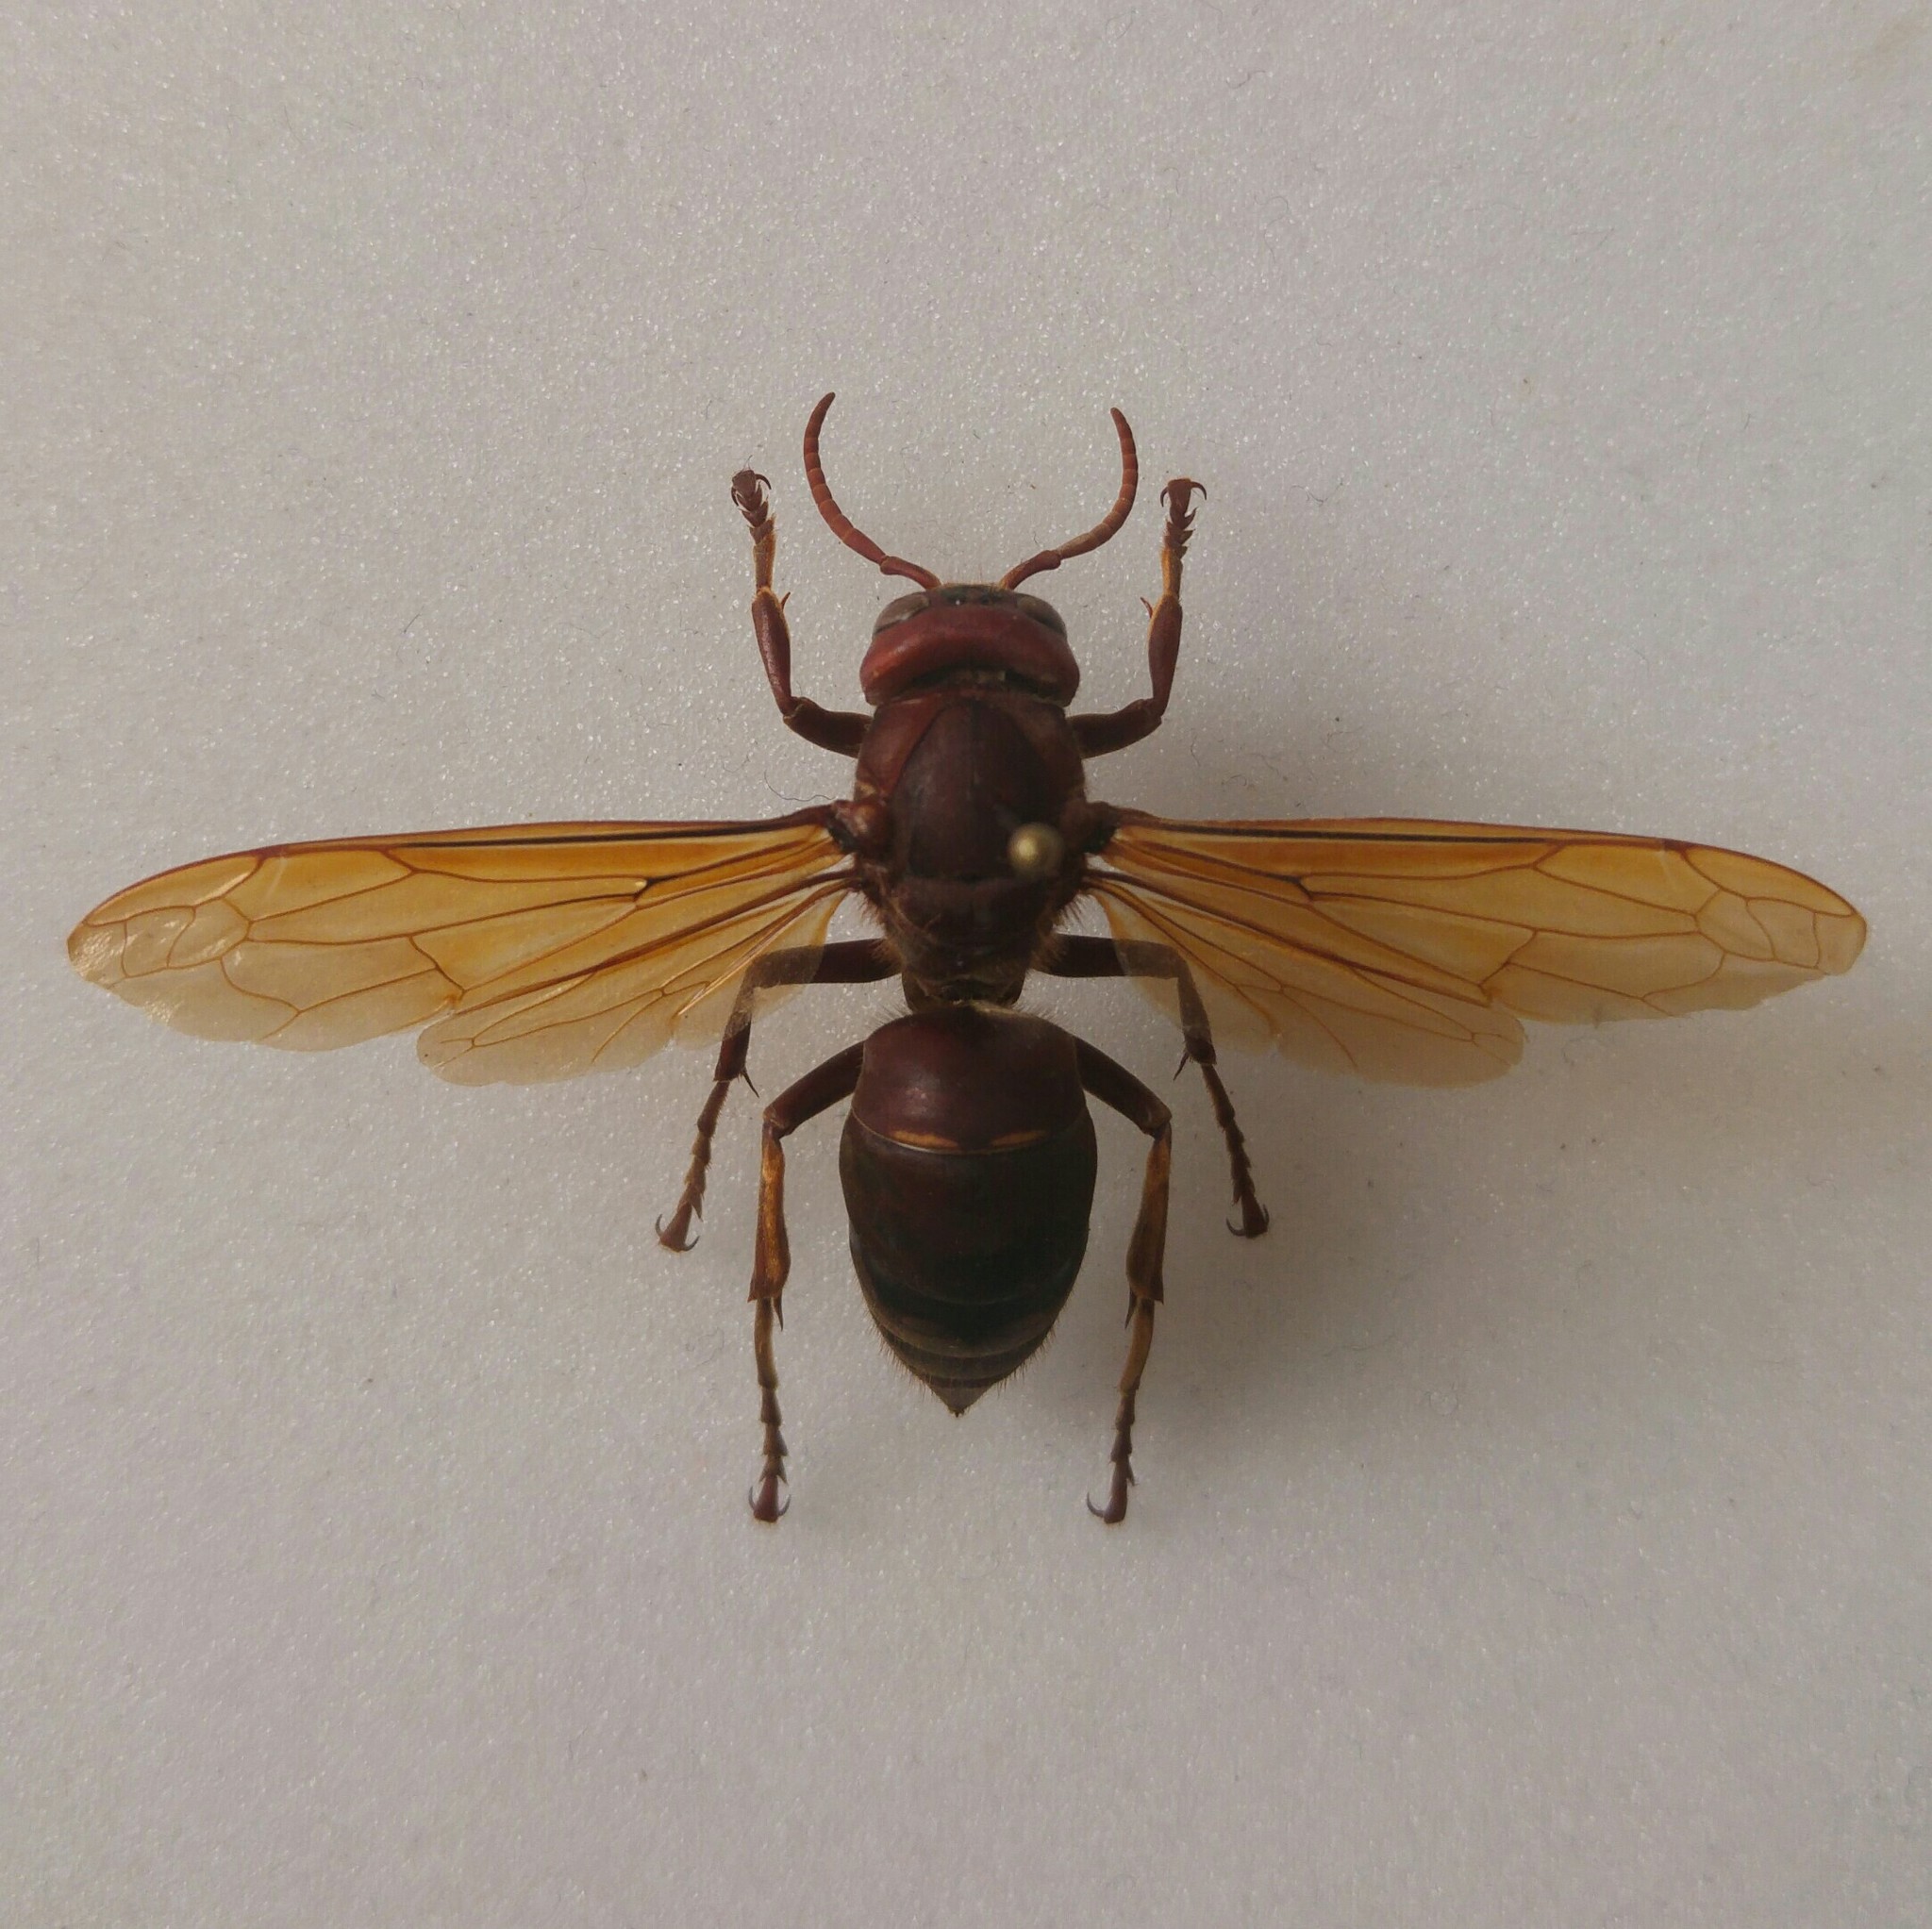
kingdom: Animalia
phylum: Arthropoda
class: Insecta
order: Hymenoptera
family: Vespidae
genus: Vespa
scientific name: Vespa orientalis
